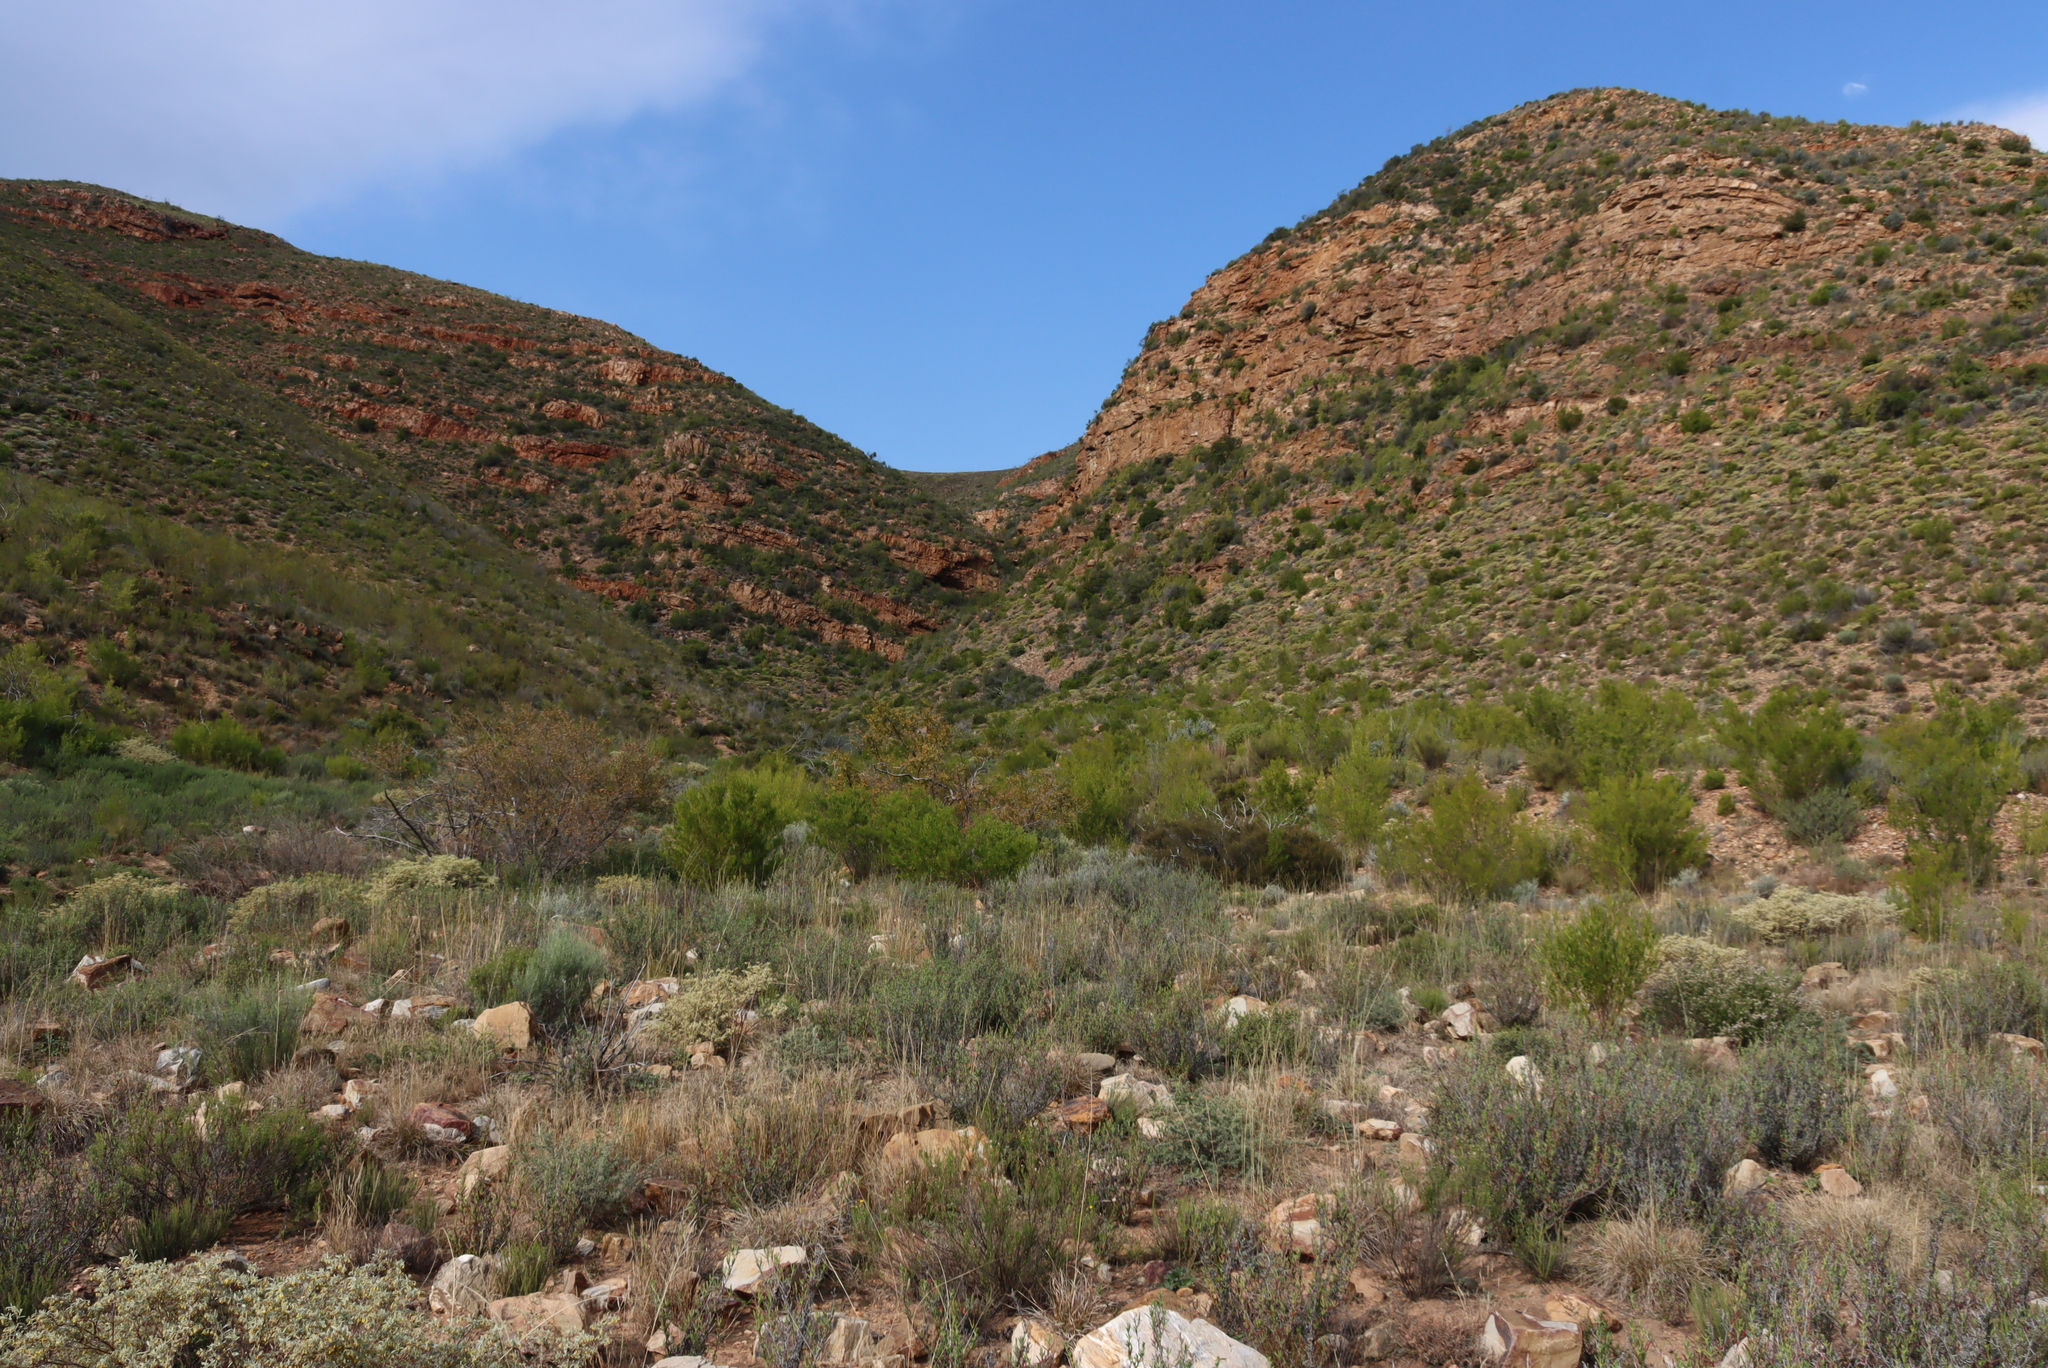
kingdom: Plantae
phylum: Tracheophyta
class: Magnoliopsida
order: Sapindales
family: Sapindaceae
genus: Dodonaea
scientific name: Dodonaea viscosa
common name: Hopbush
